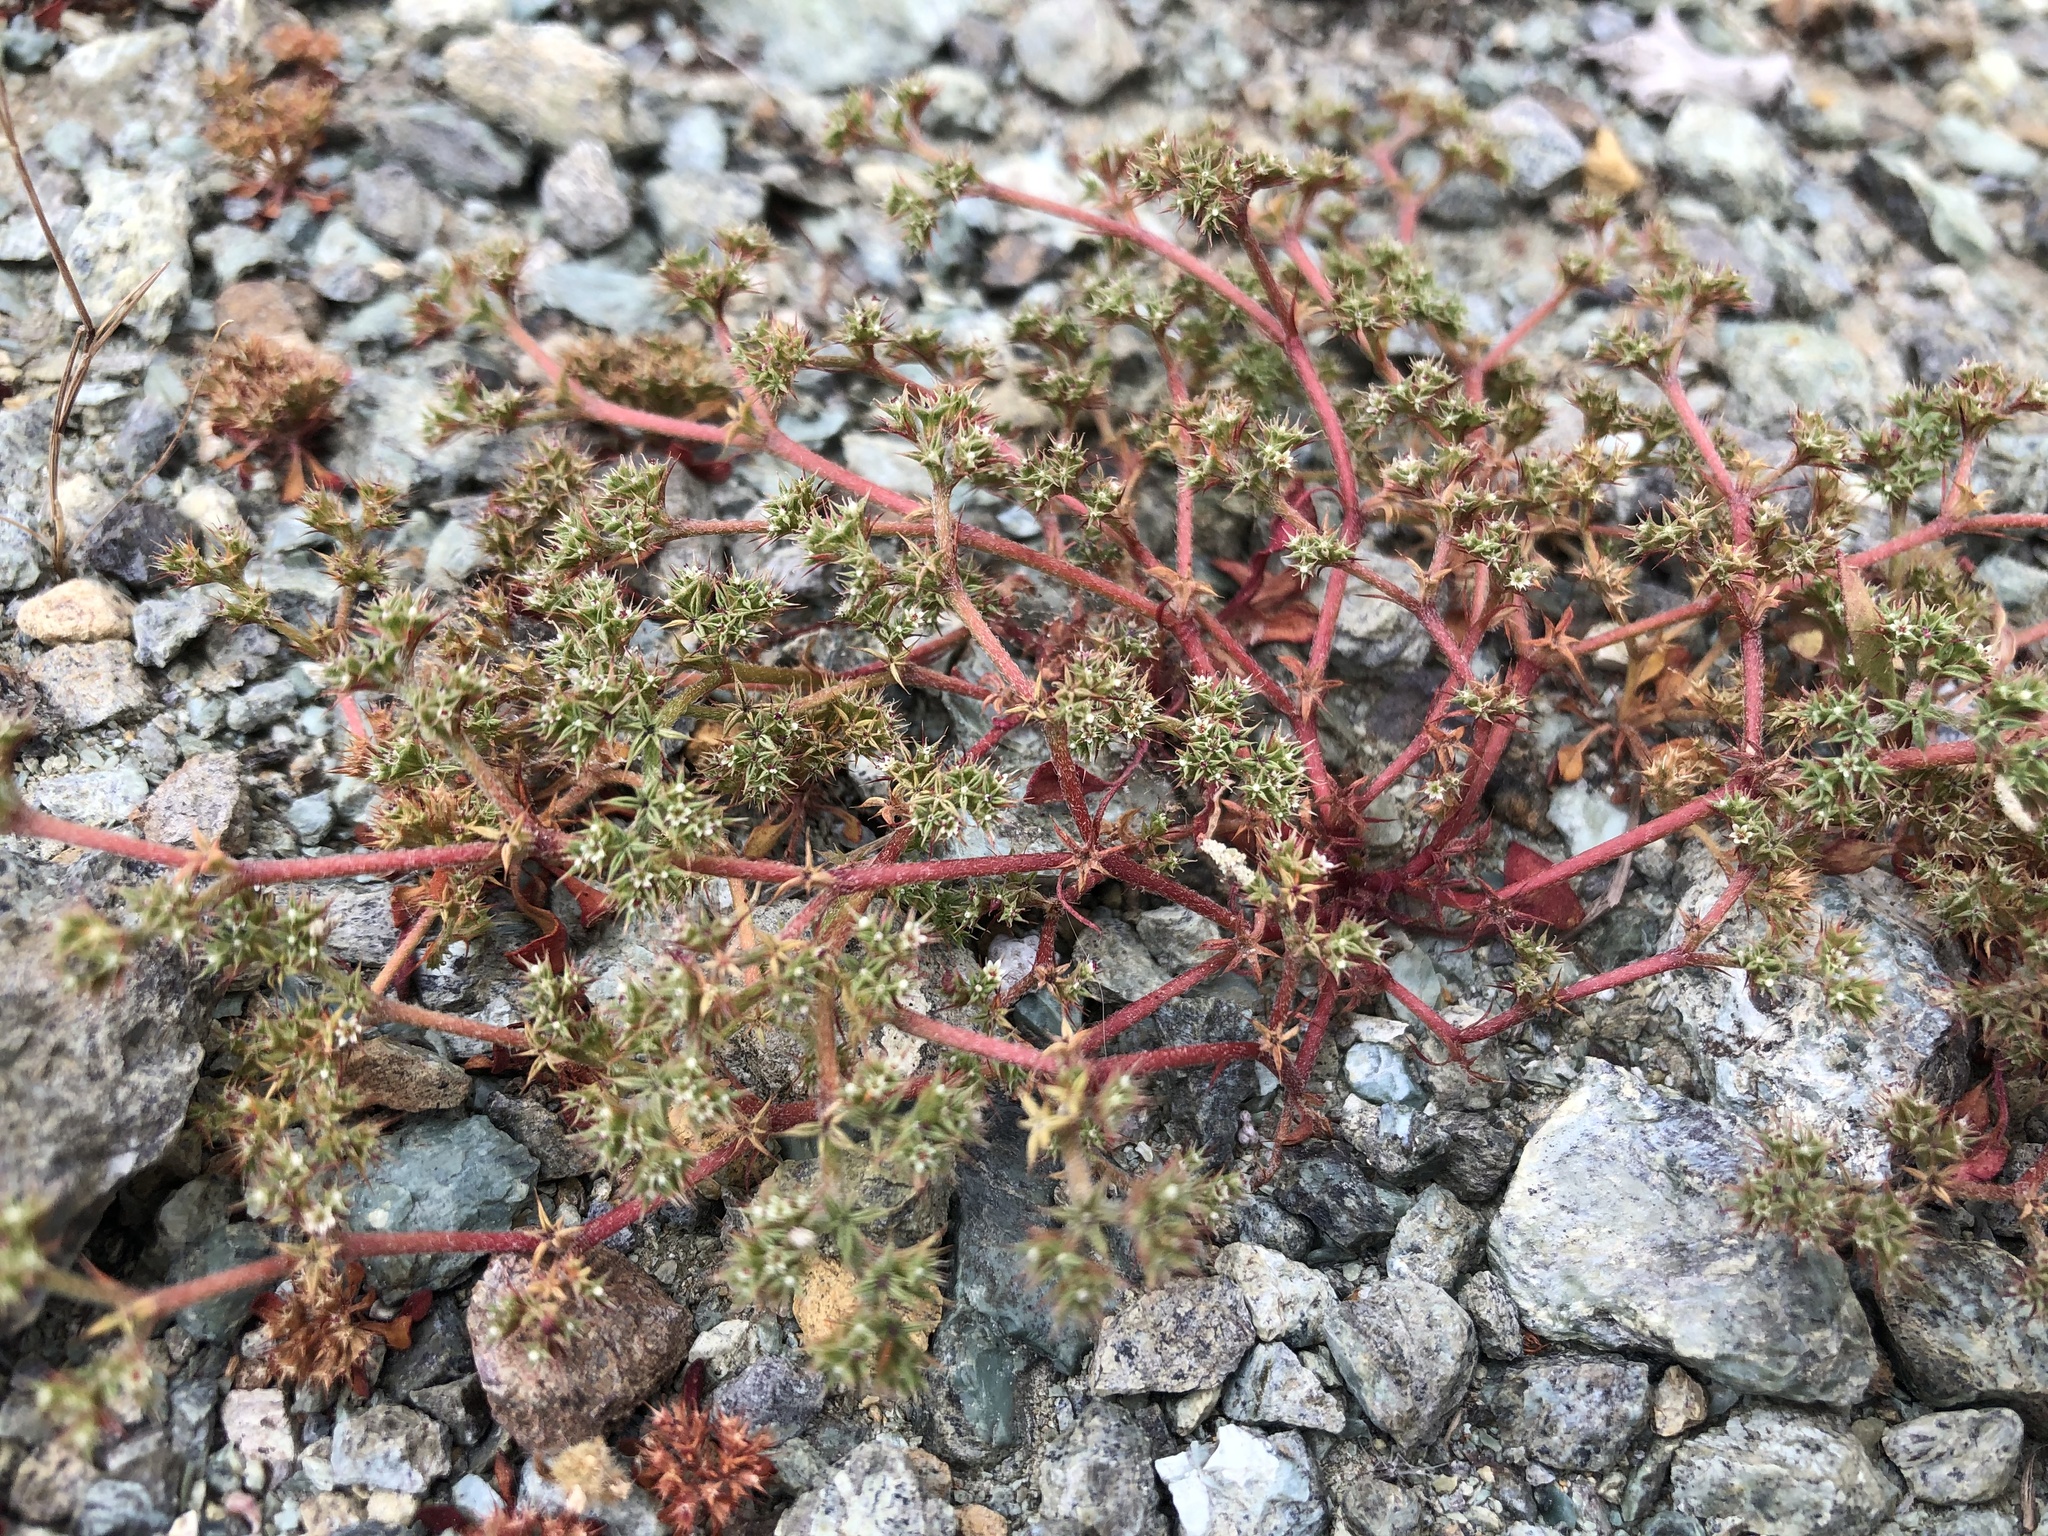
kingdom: Plantae
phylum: Tracheophyta
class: Magnoliopsida
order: Caryophyllales
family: Polygonaceae
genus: Chorizanthe
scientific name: Chorizanthe aphanantha
